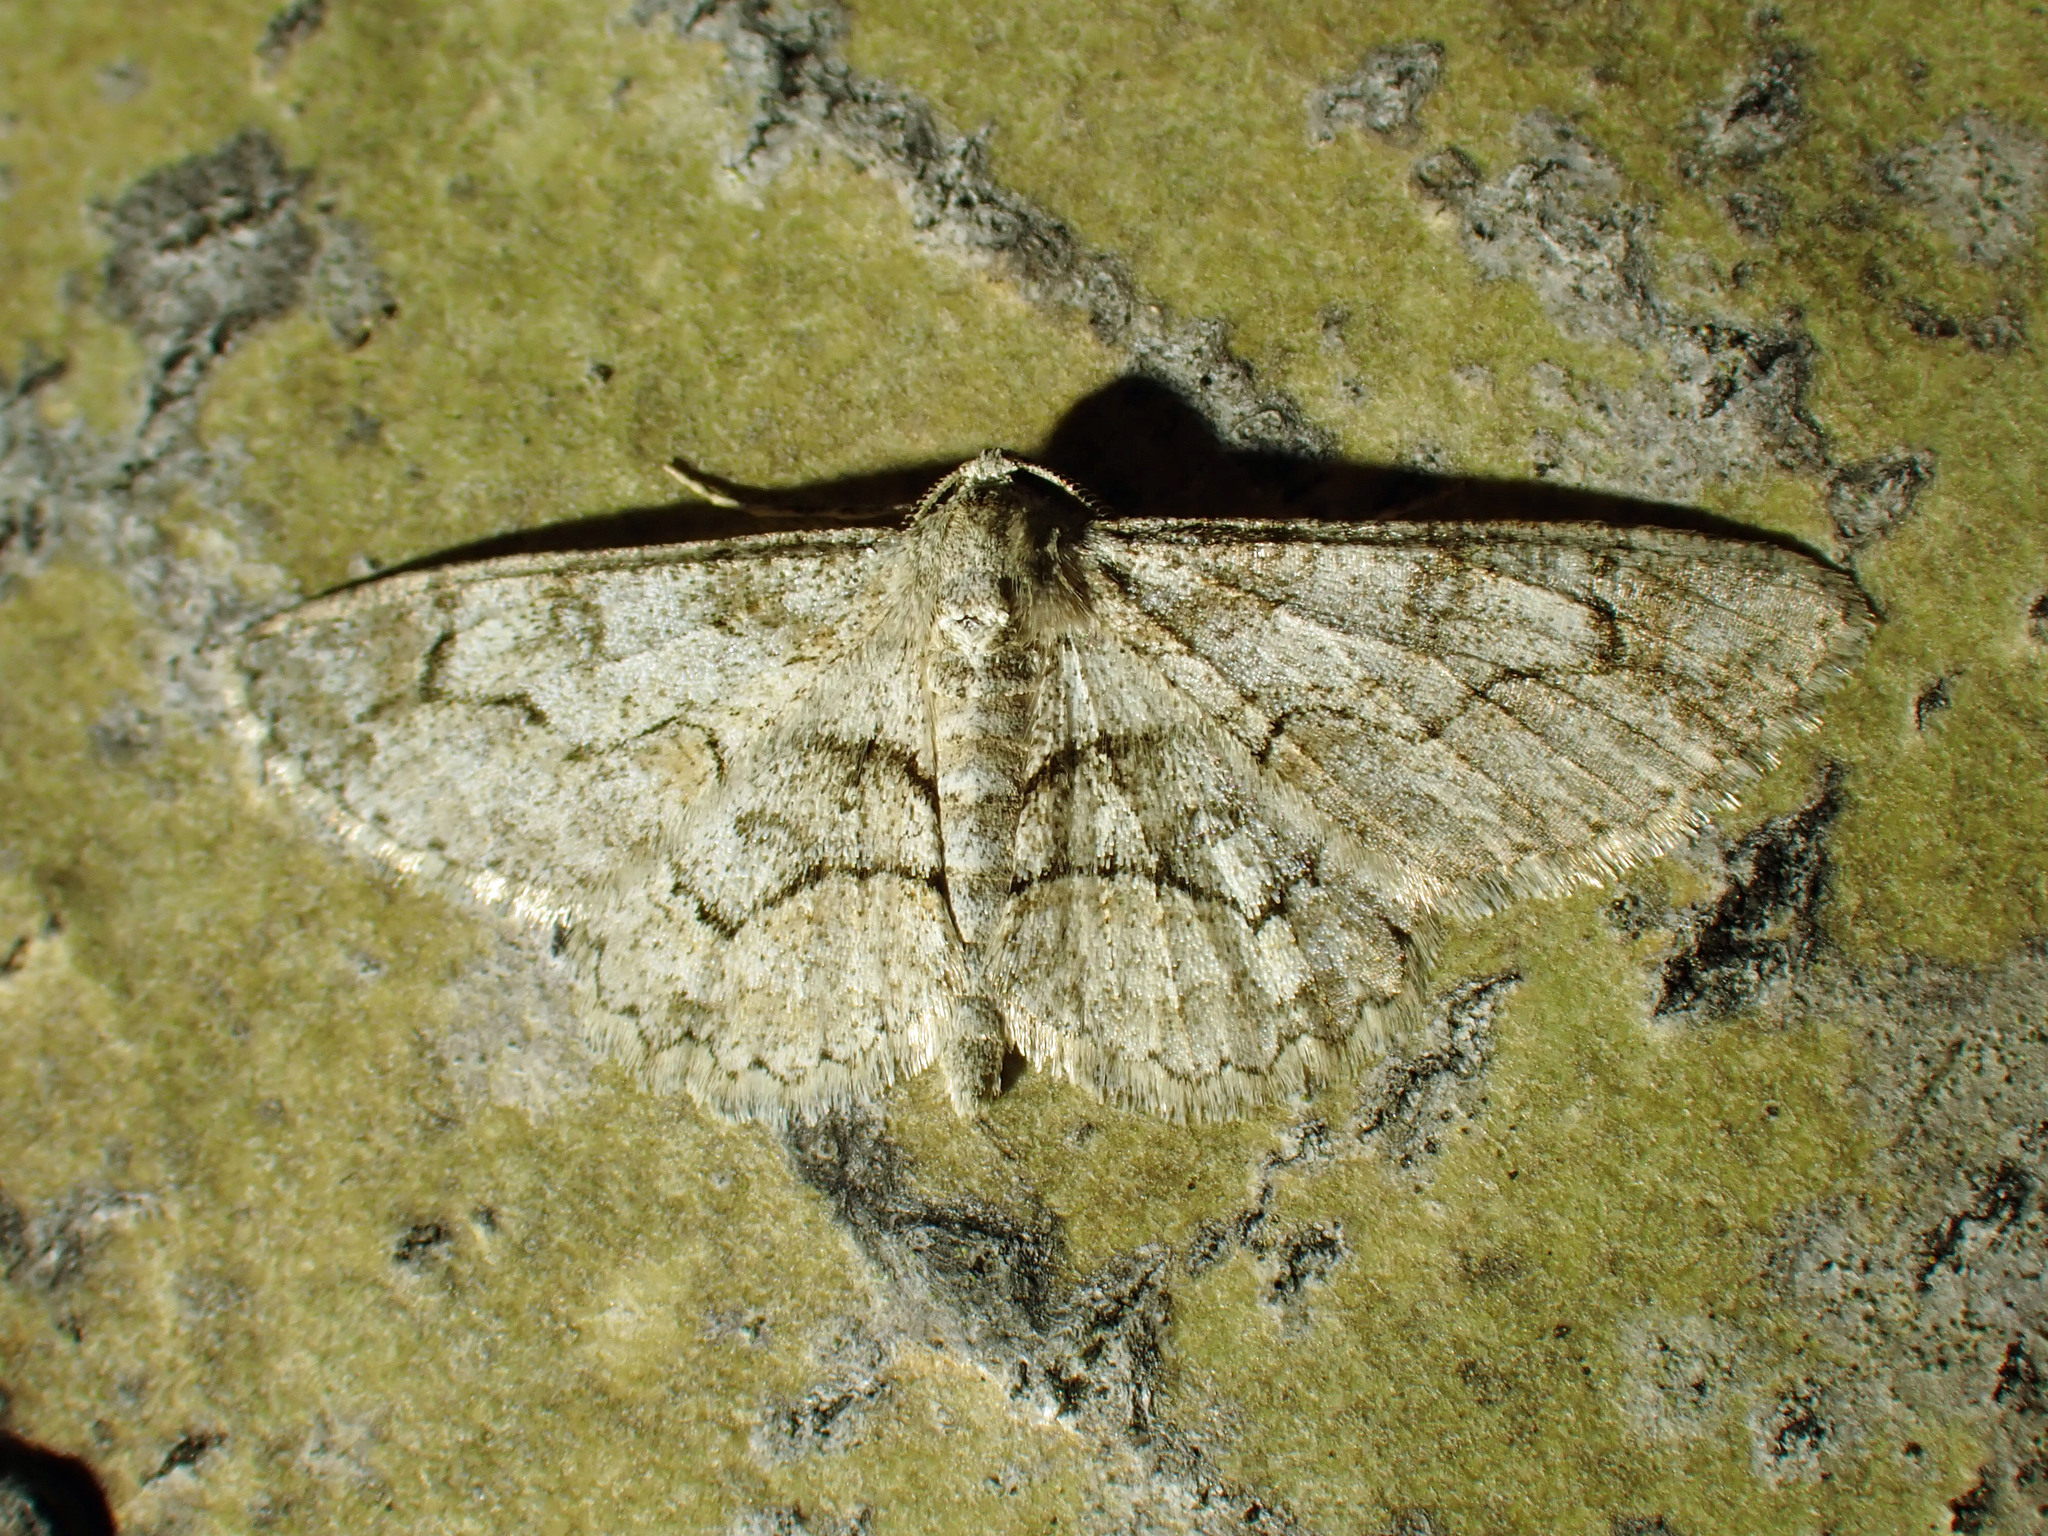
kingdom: Animalia
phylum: Arthropoda
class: Insecta
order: Lepidoptera
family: Geometridae
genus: Iridopsis
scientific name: Iridopsis larvaria
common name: Bent-line gray
